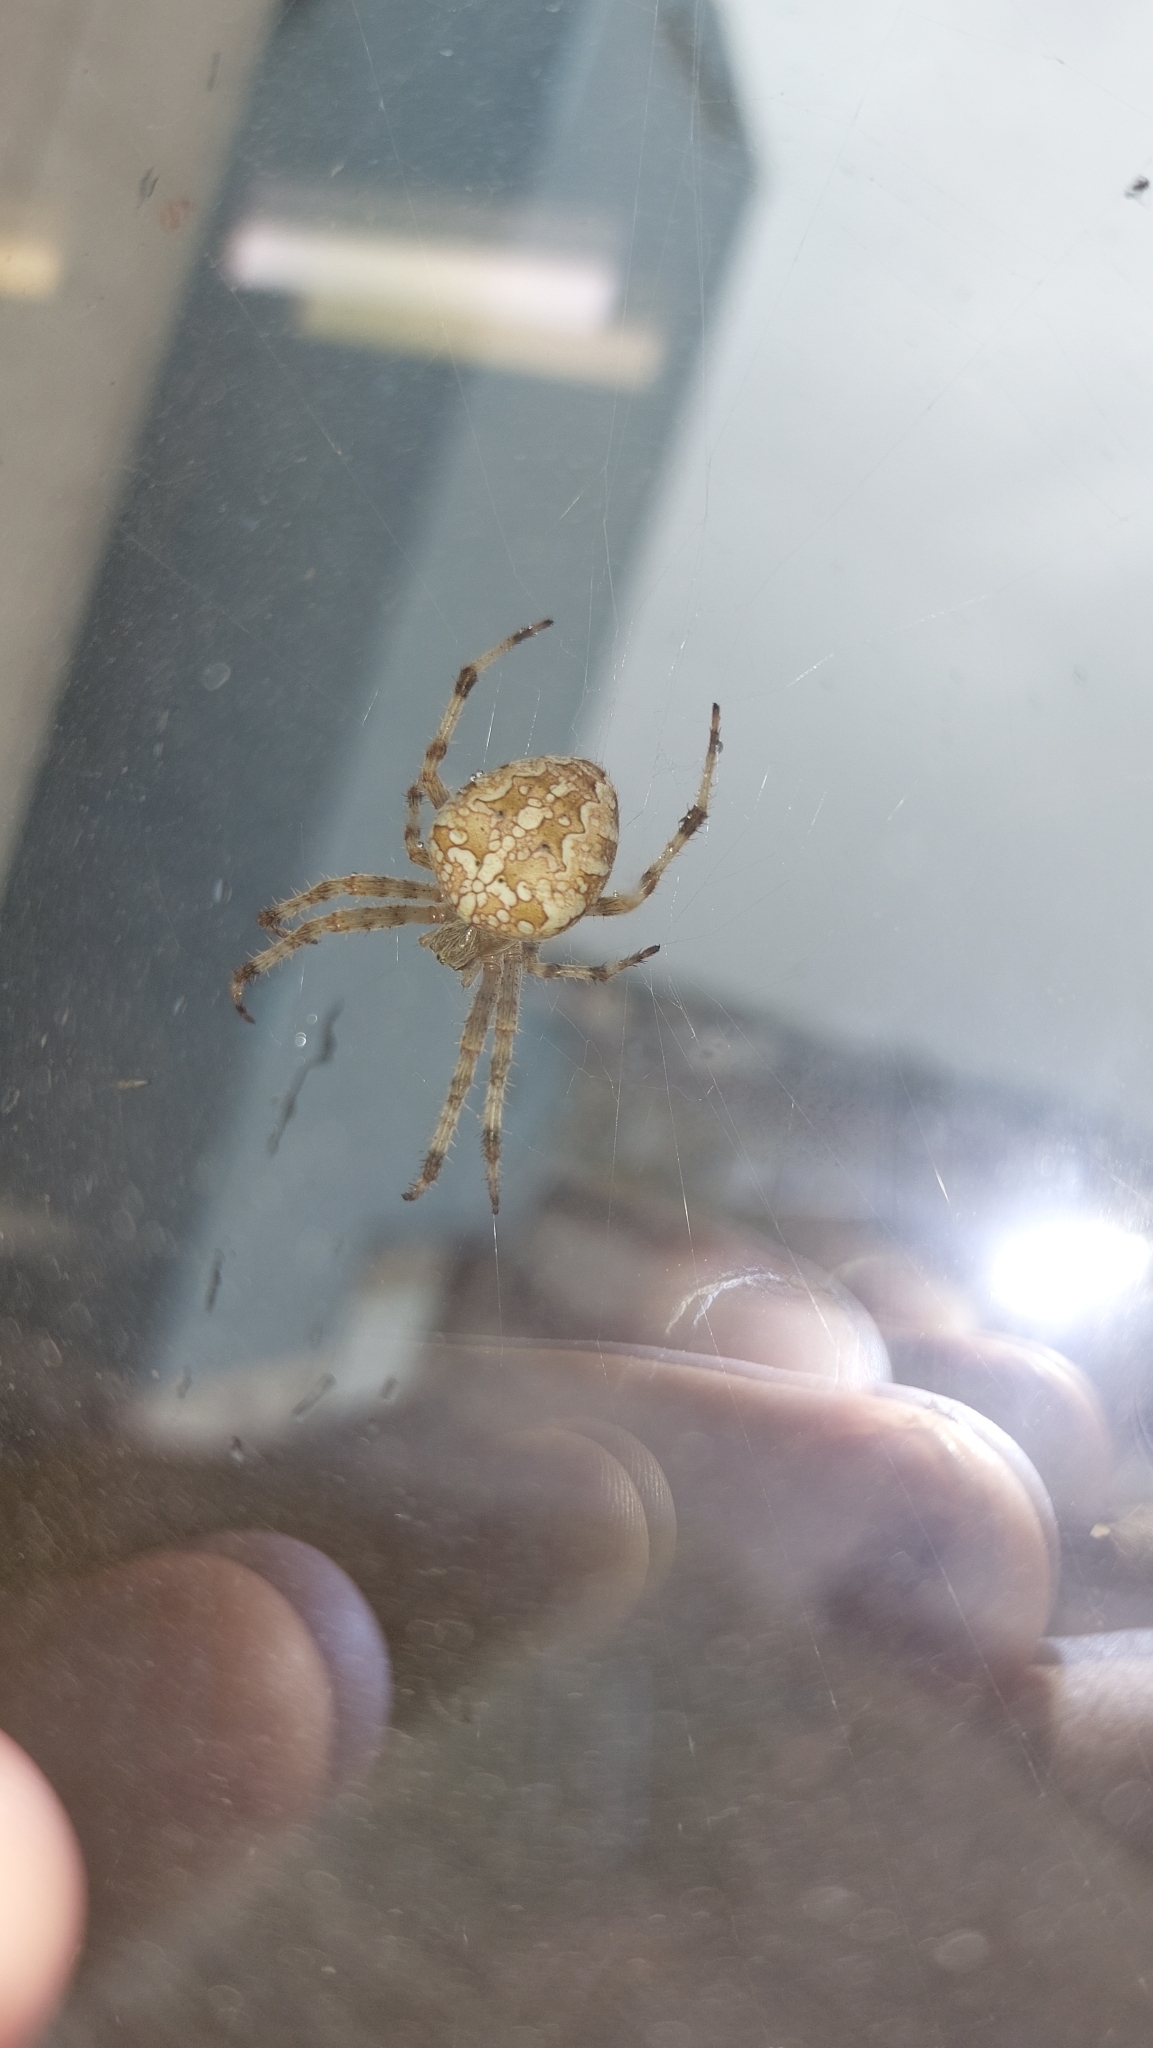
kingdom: Animalia
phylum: Arthropoda
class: Arachnida
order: Araneae
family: Araneidae
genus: Araneus
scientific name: Araneus diadematus
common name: Cross orbweaver
